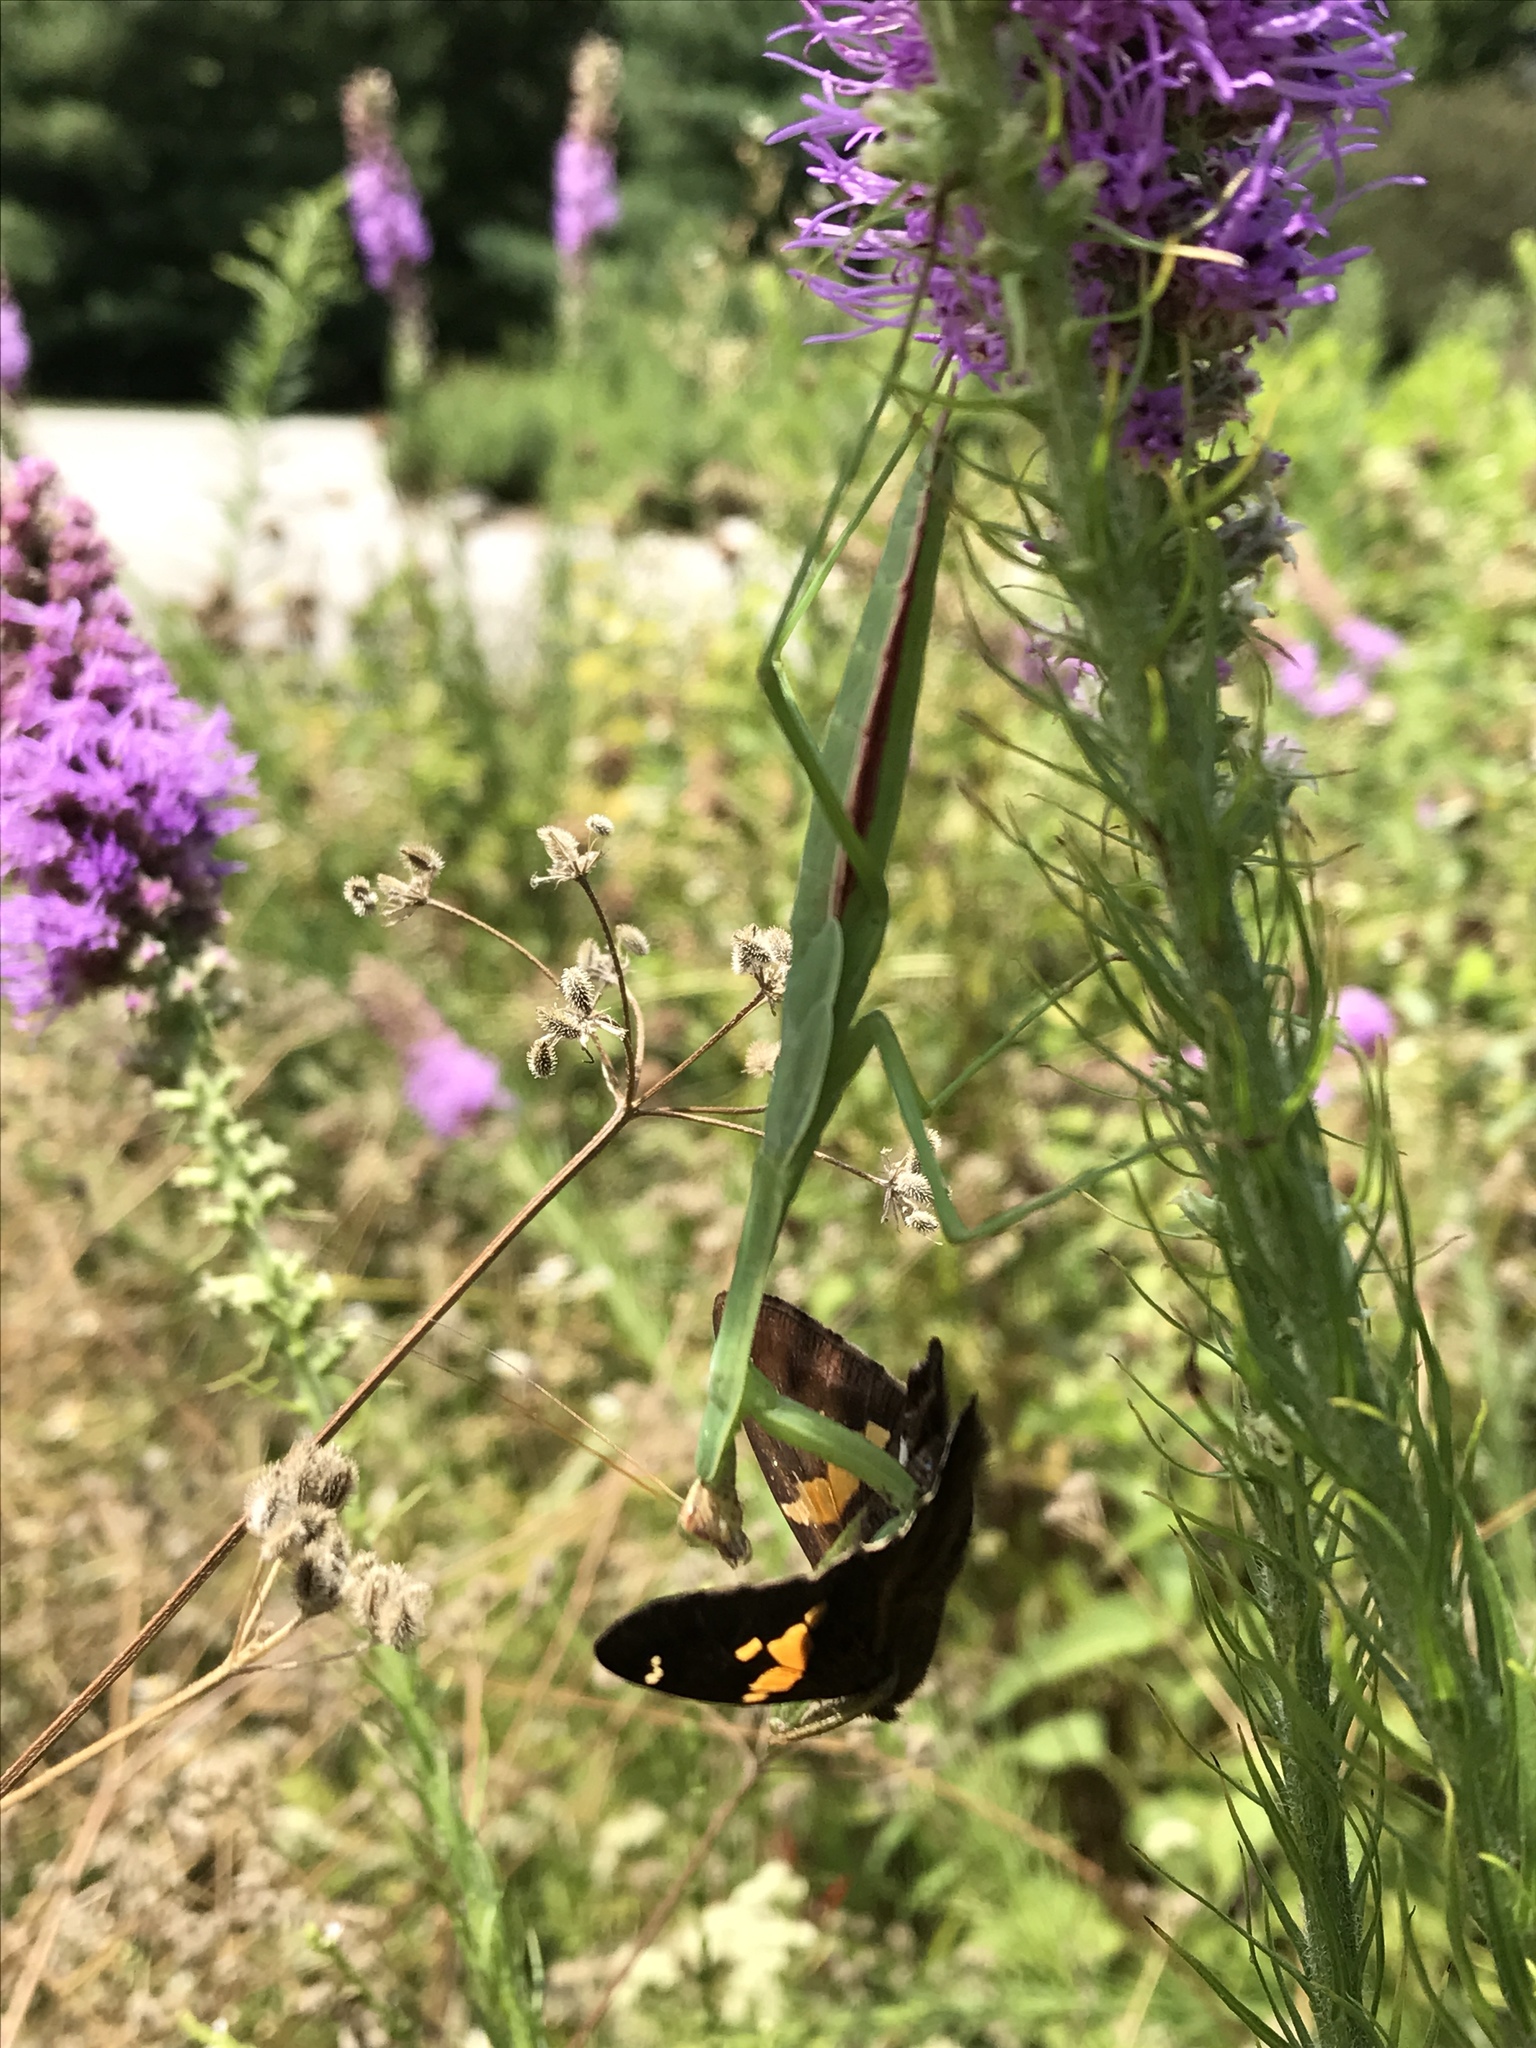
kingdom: Animalia
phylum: Arthropoda
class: Insecta
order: Mantodea
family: Mantidae
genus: Tenodera
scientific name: Tenodera sinensis
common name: Chinese mantis
